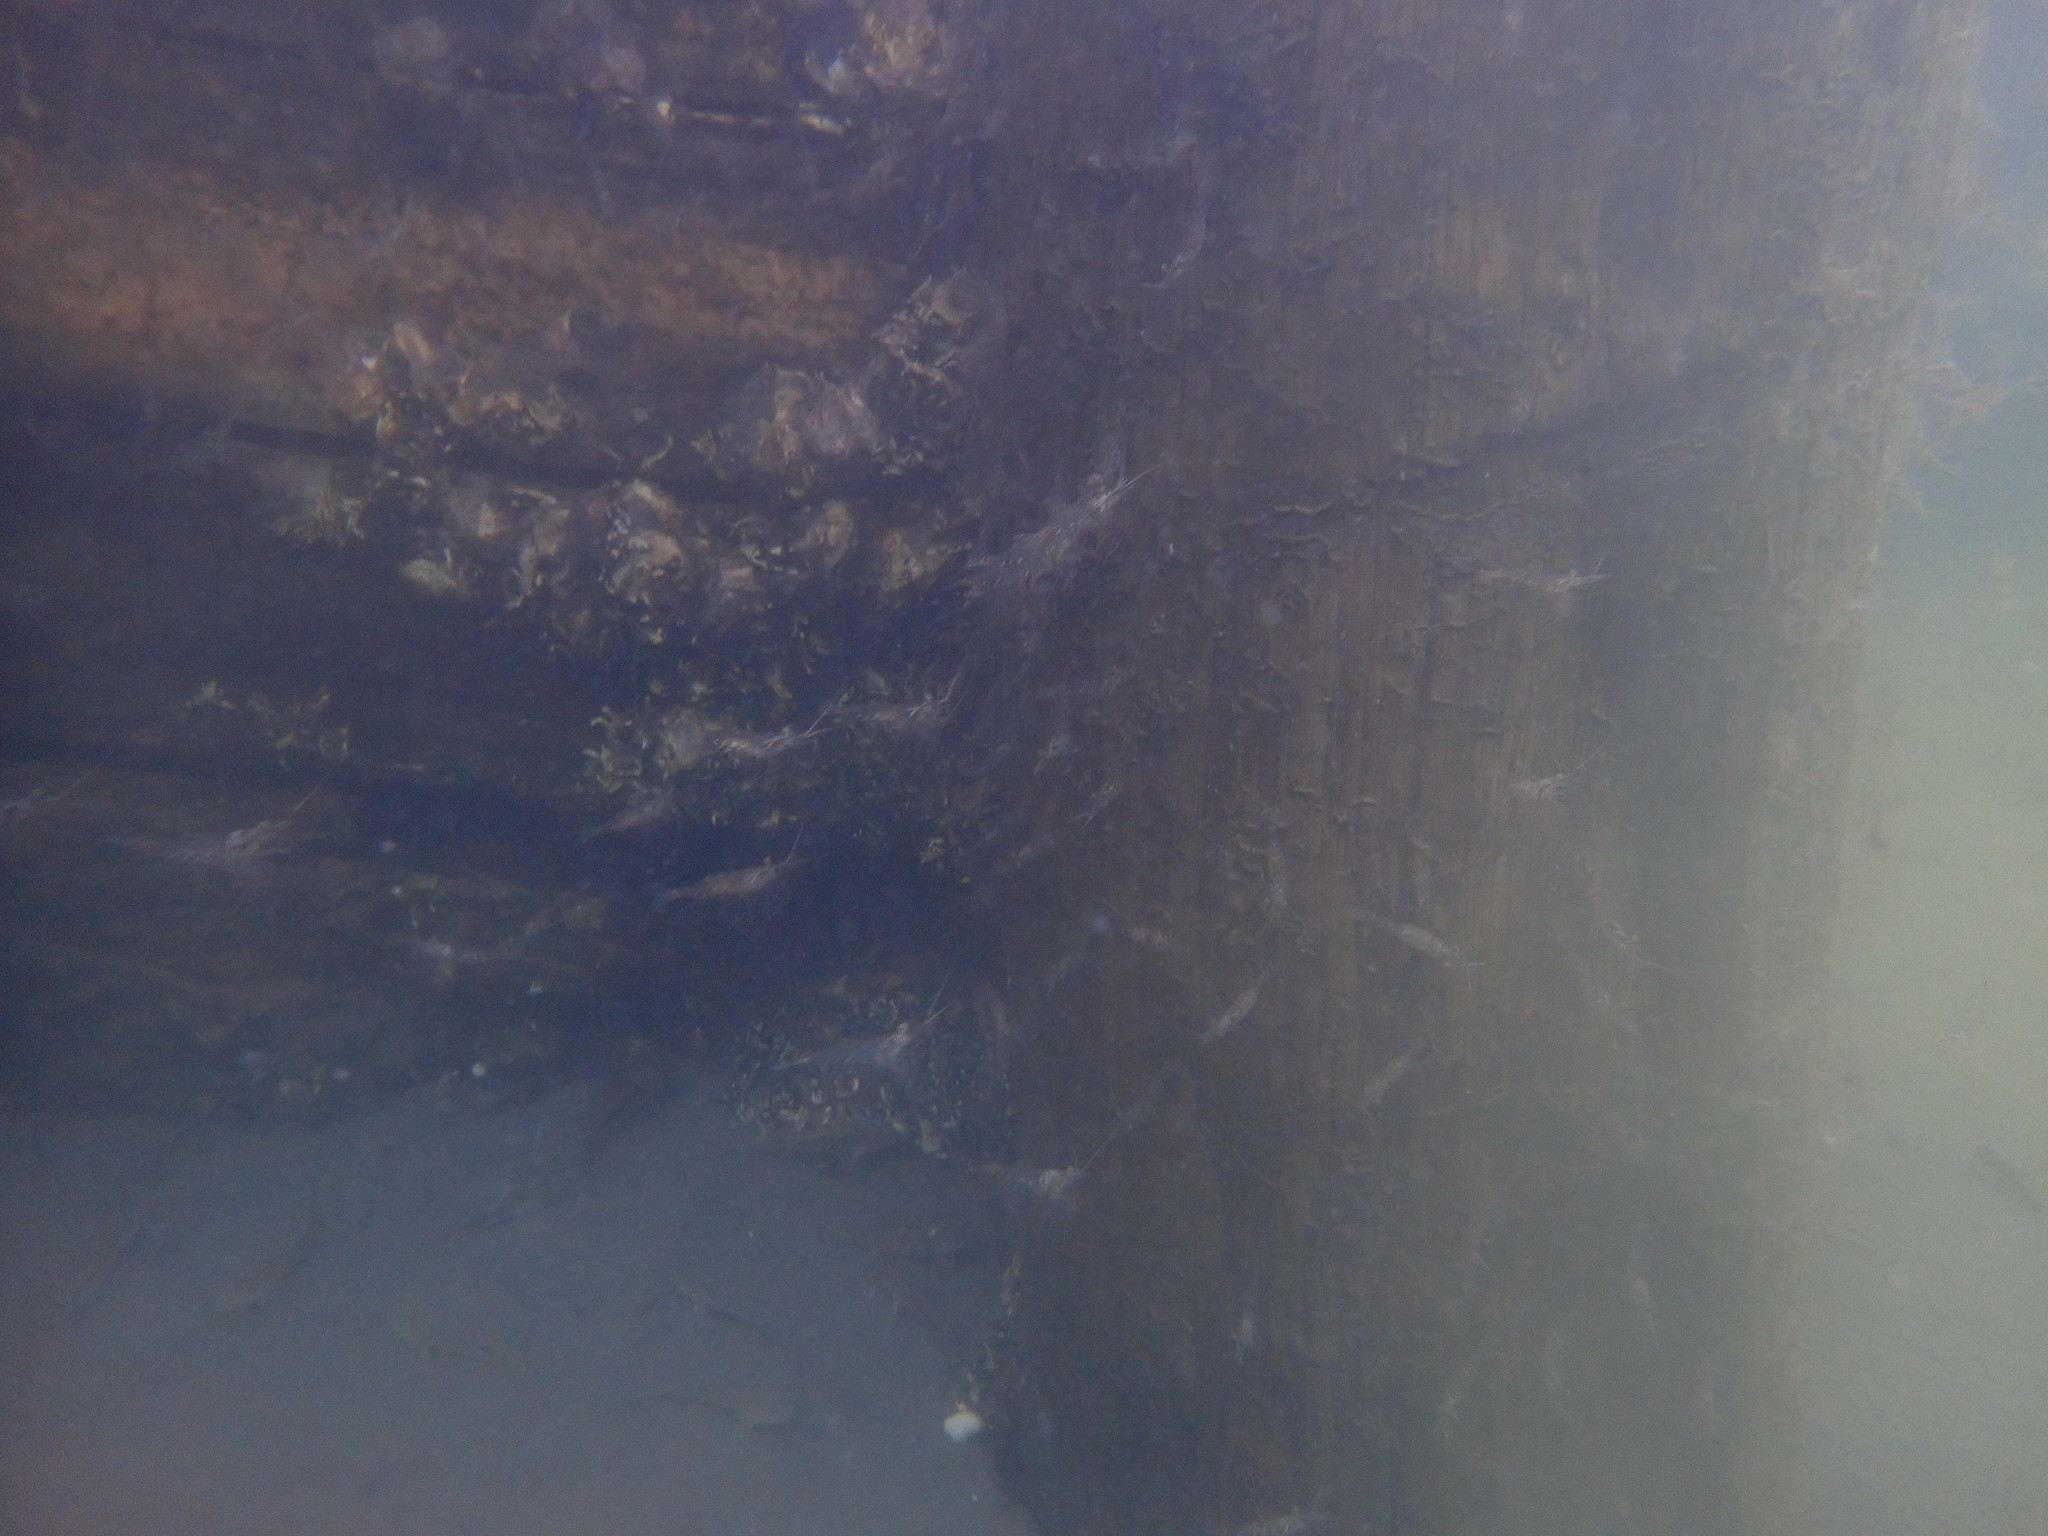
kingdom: Animalia
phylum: Arthropoda
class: Malacostraca
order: Decapoda
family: Palaemonidae
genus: Palaemon
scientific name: Palaemon affinis
